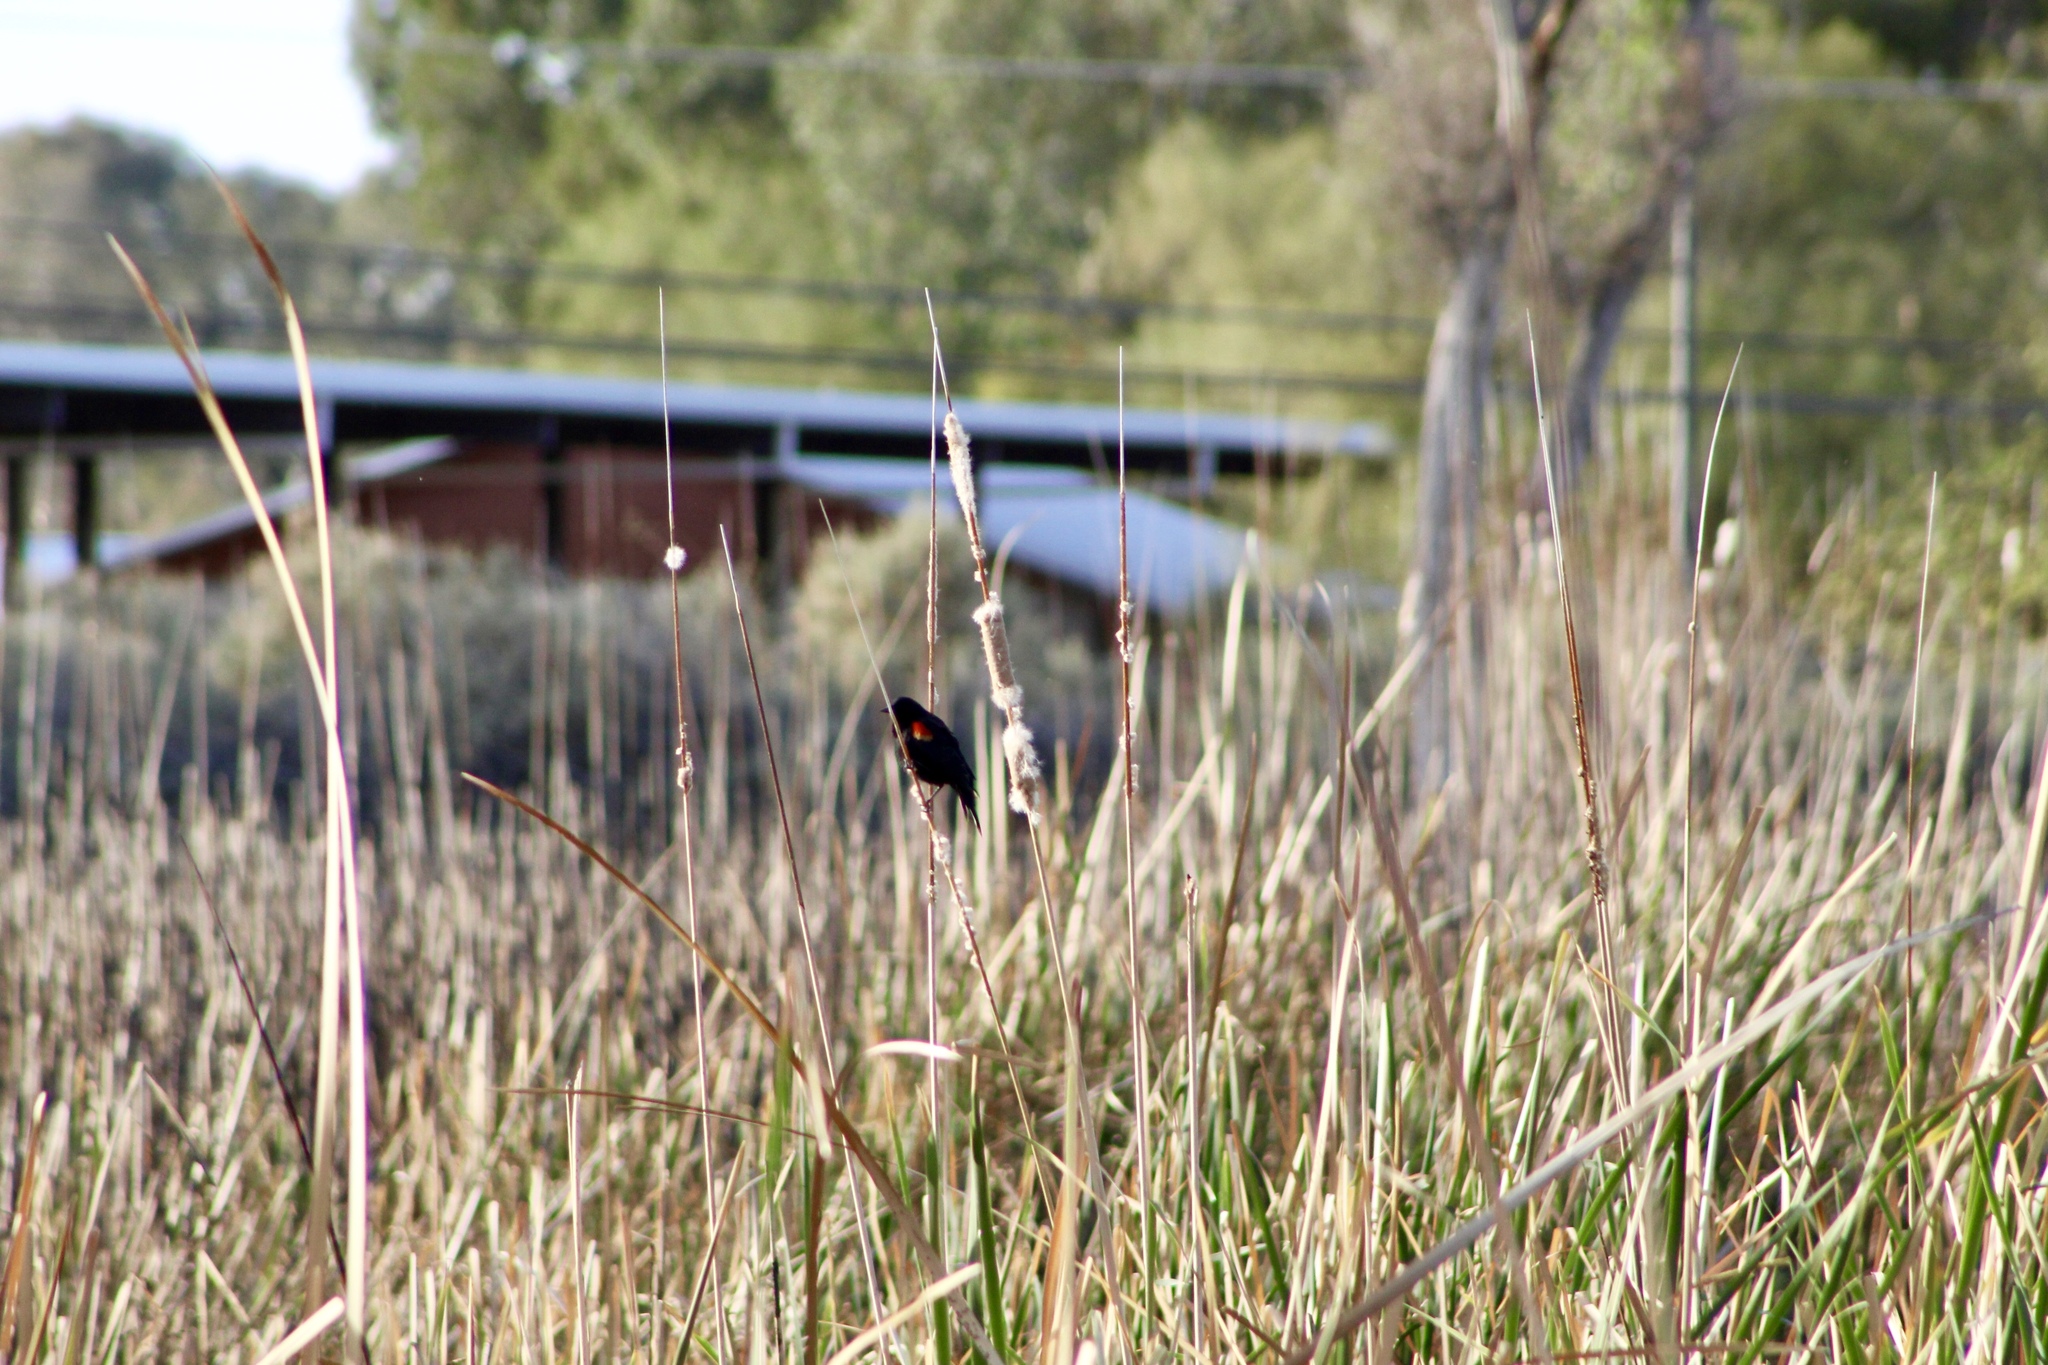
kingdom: Animalia
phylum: Chordata
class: Aves
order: Passeriformes
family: Icteridae
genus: Agelaius
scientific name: Agelaius phoeniceus
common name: Red-winged blackbird
